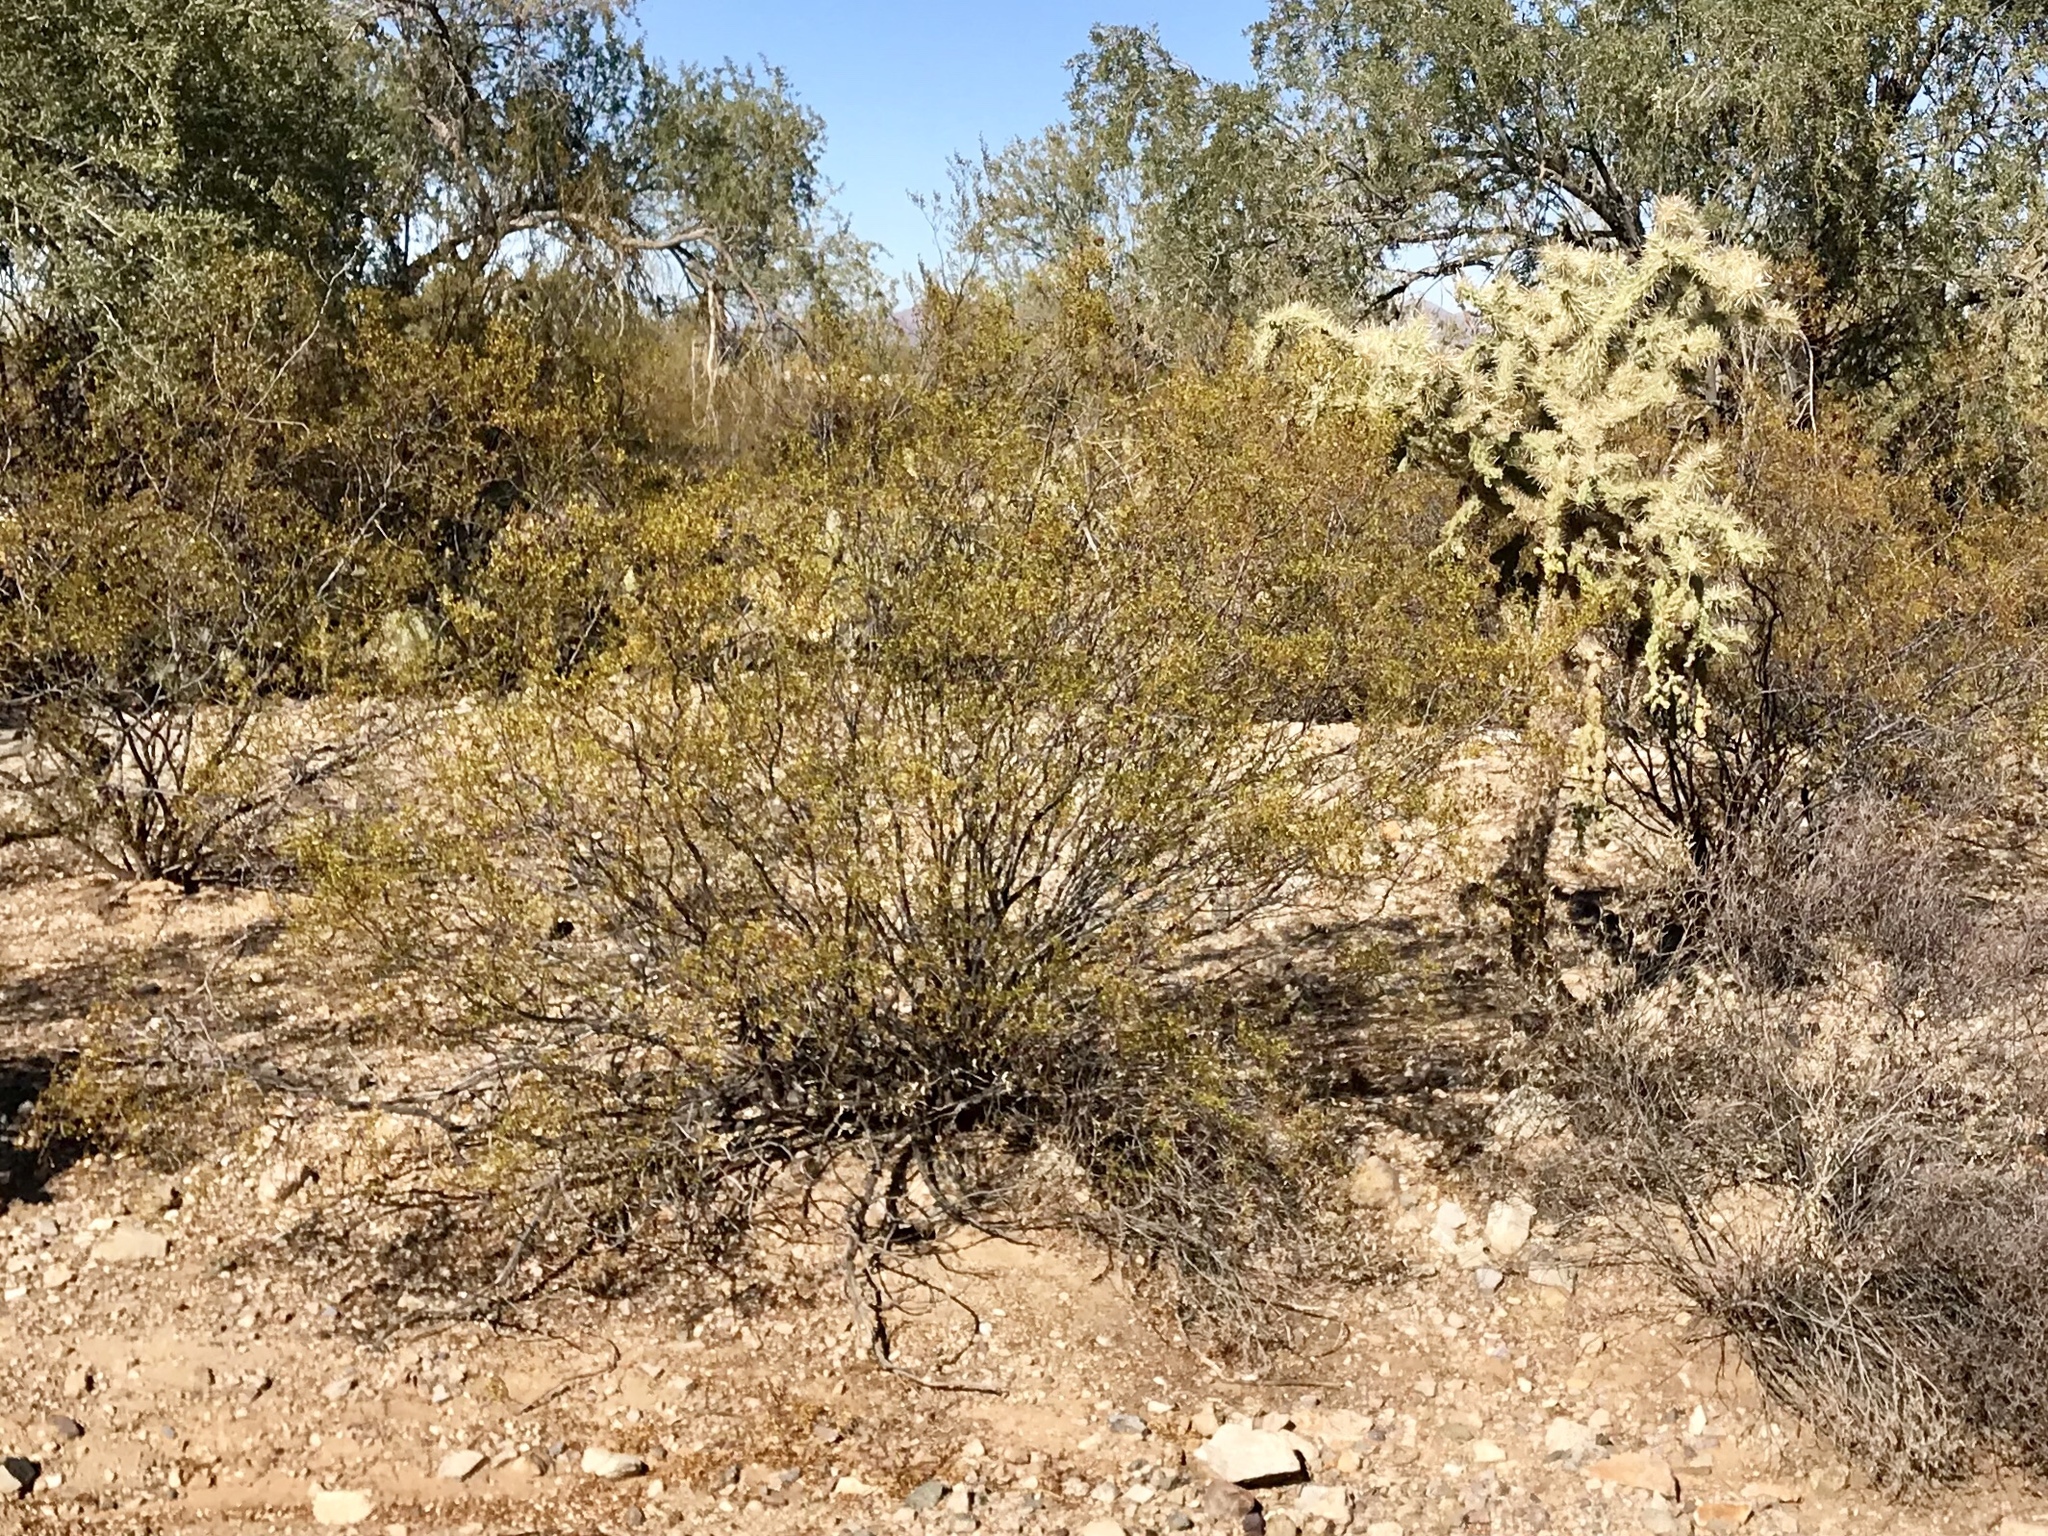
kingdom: Plantae
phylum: Tracheophyta
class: Magnoliopsida
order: Zygophyllales
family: Zygophyllaceae
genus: Larrea
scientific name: Larrea tridentata
